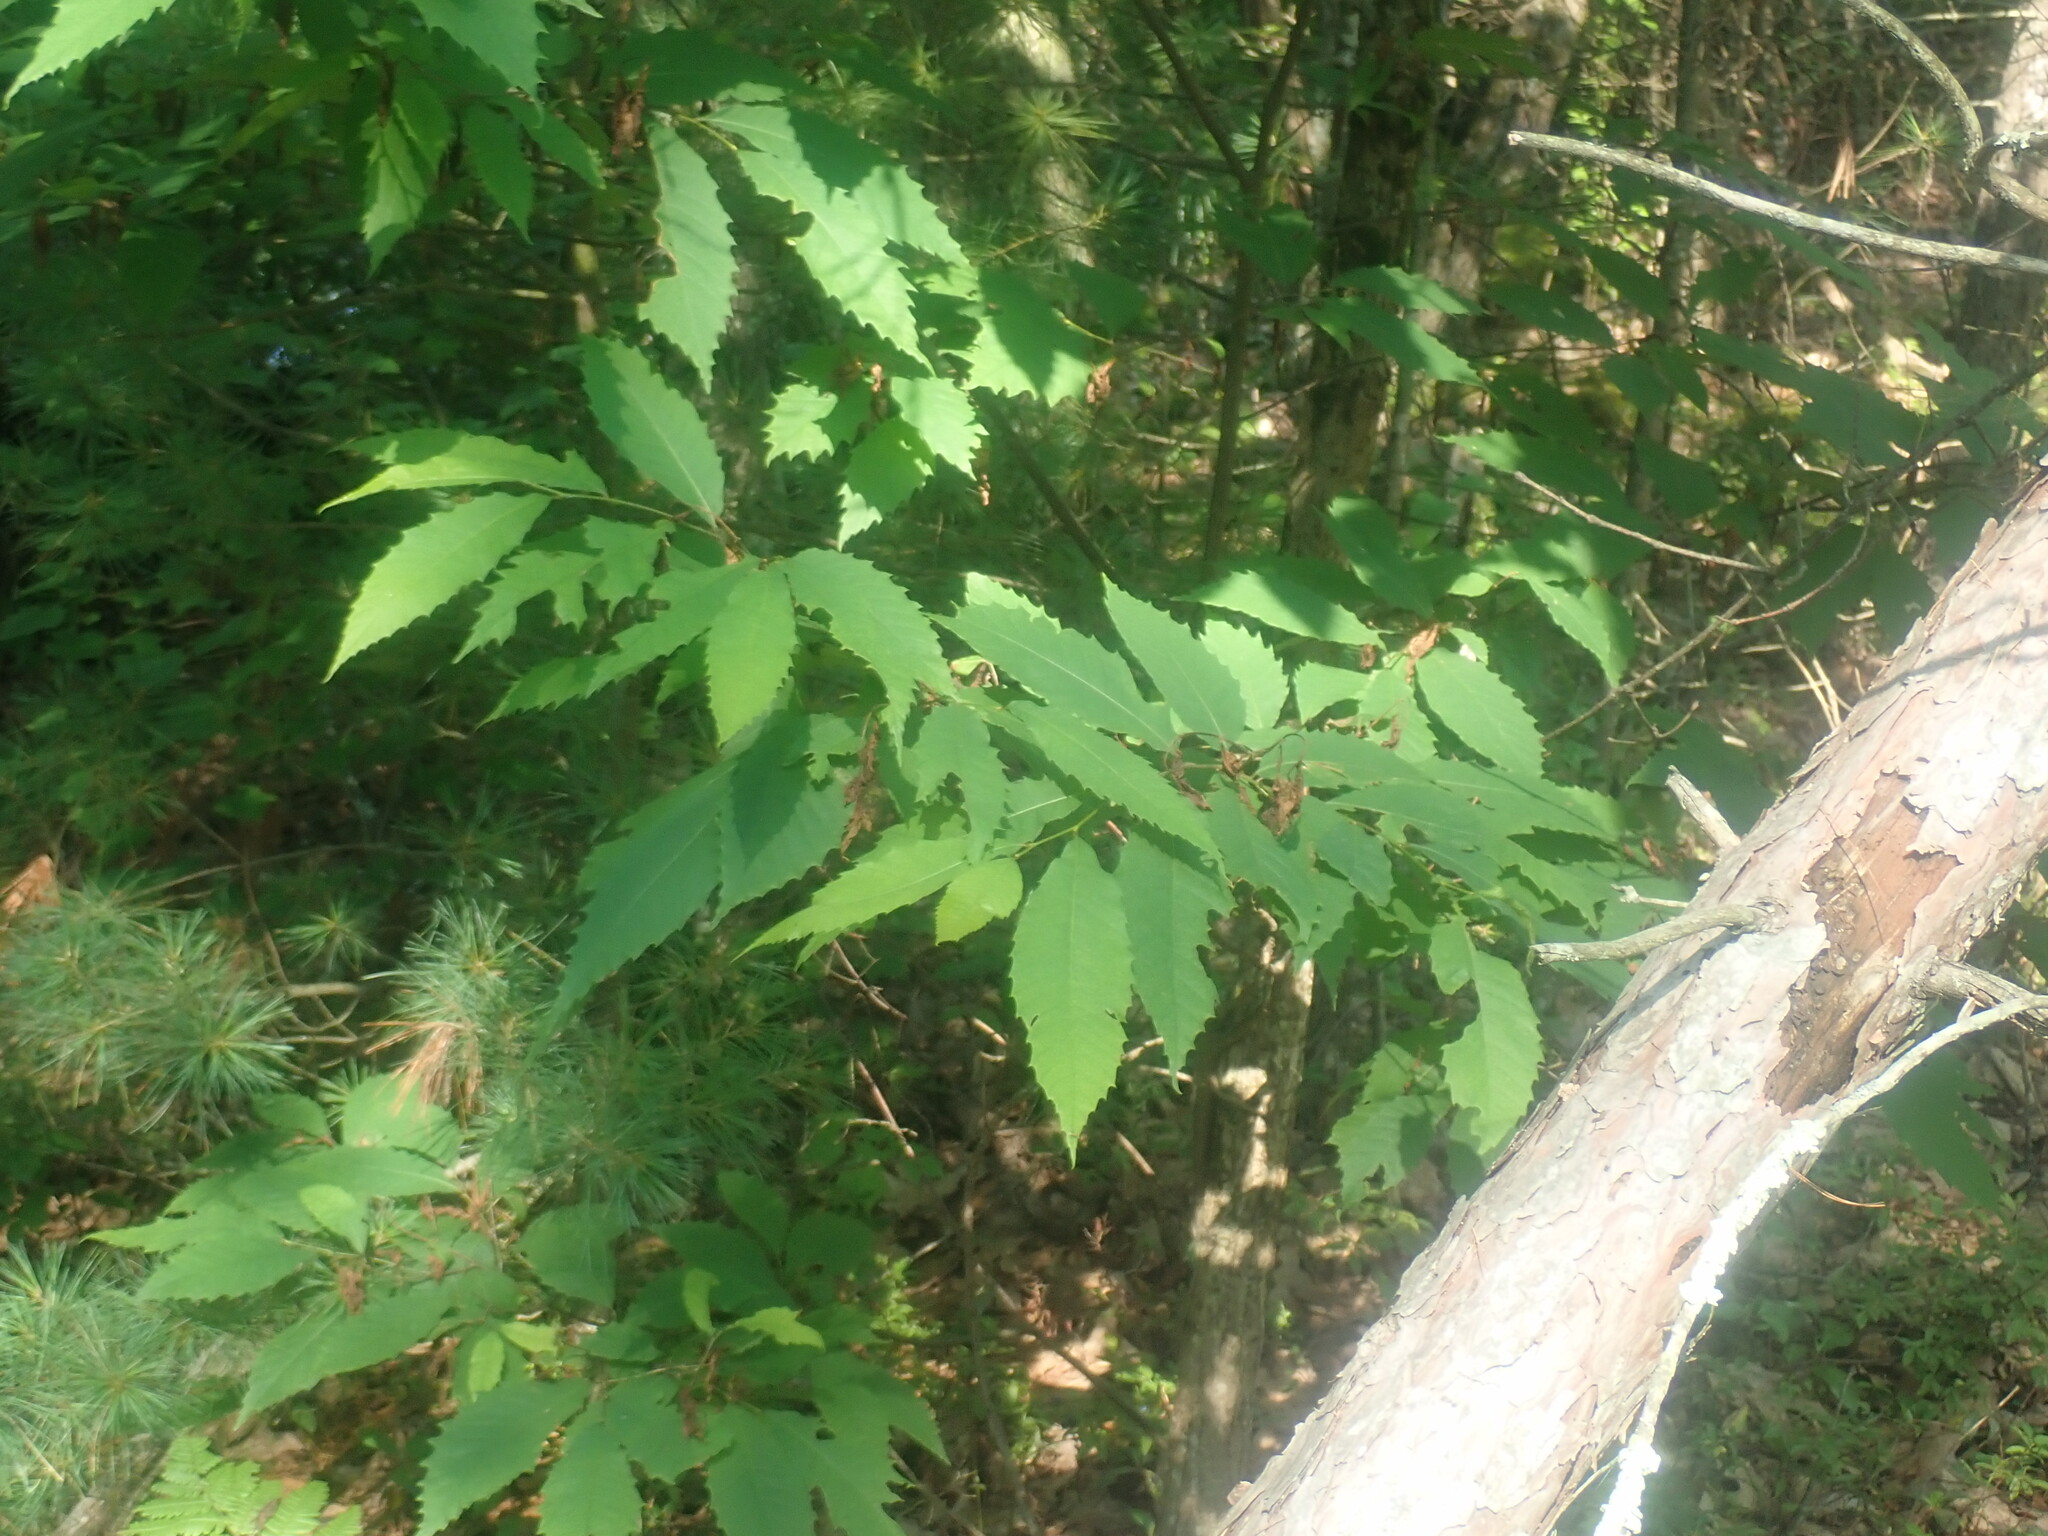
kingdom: Plantae
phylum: Tracheophyta
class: Magnoliopsida
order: Fagales
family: Fagaceae
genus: Castanea
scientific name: Castanea dentata
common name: American chestnut
